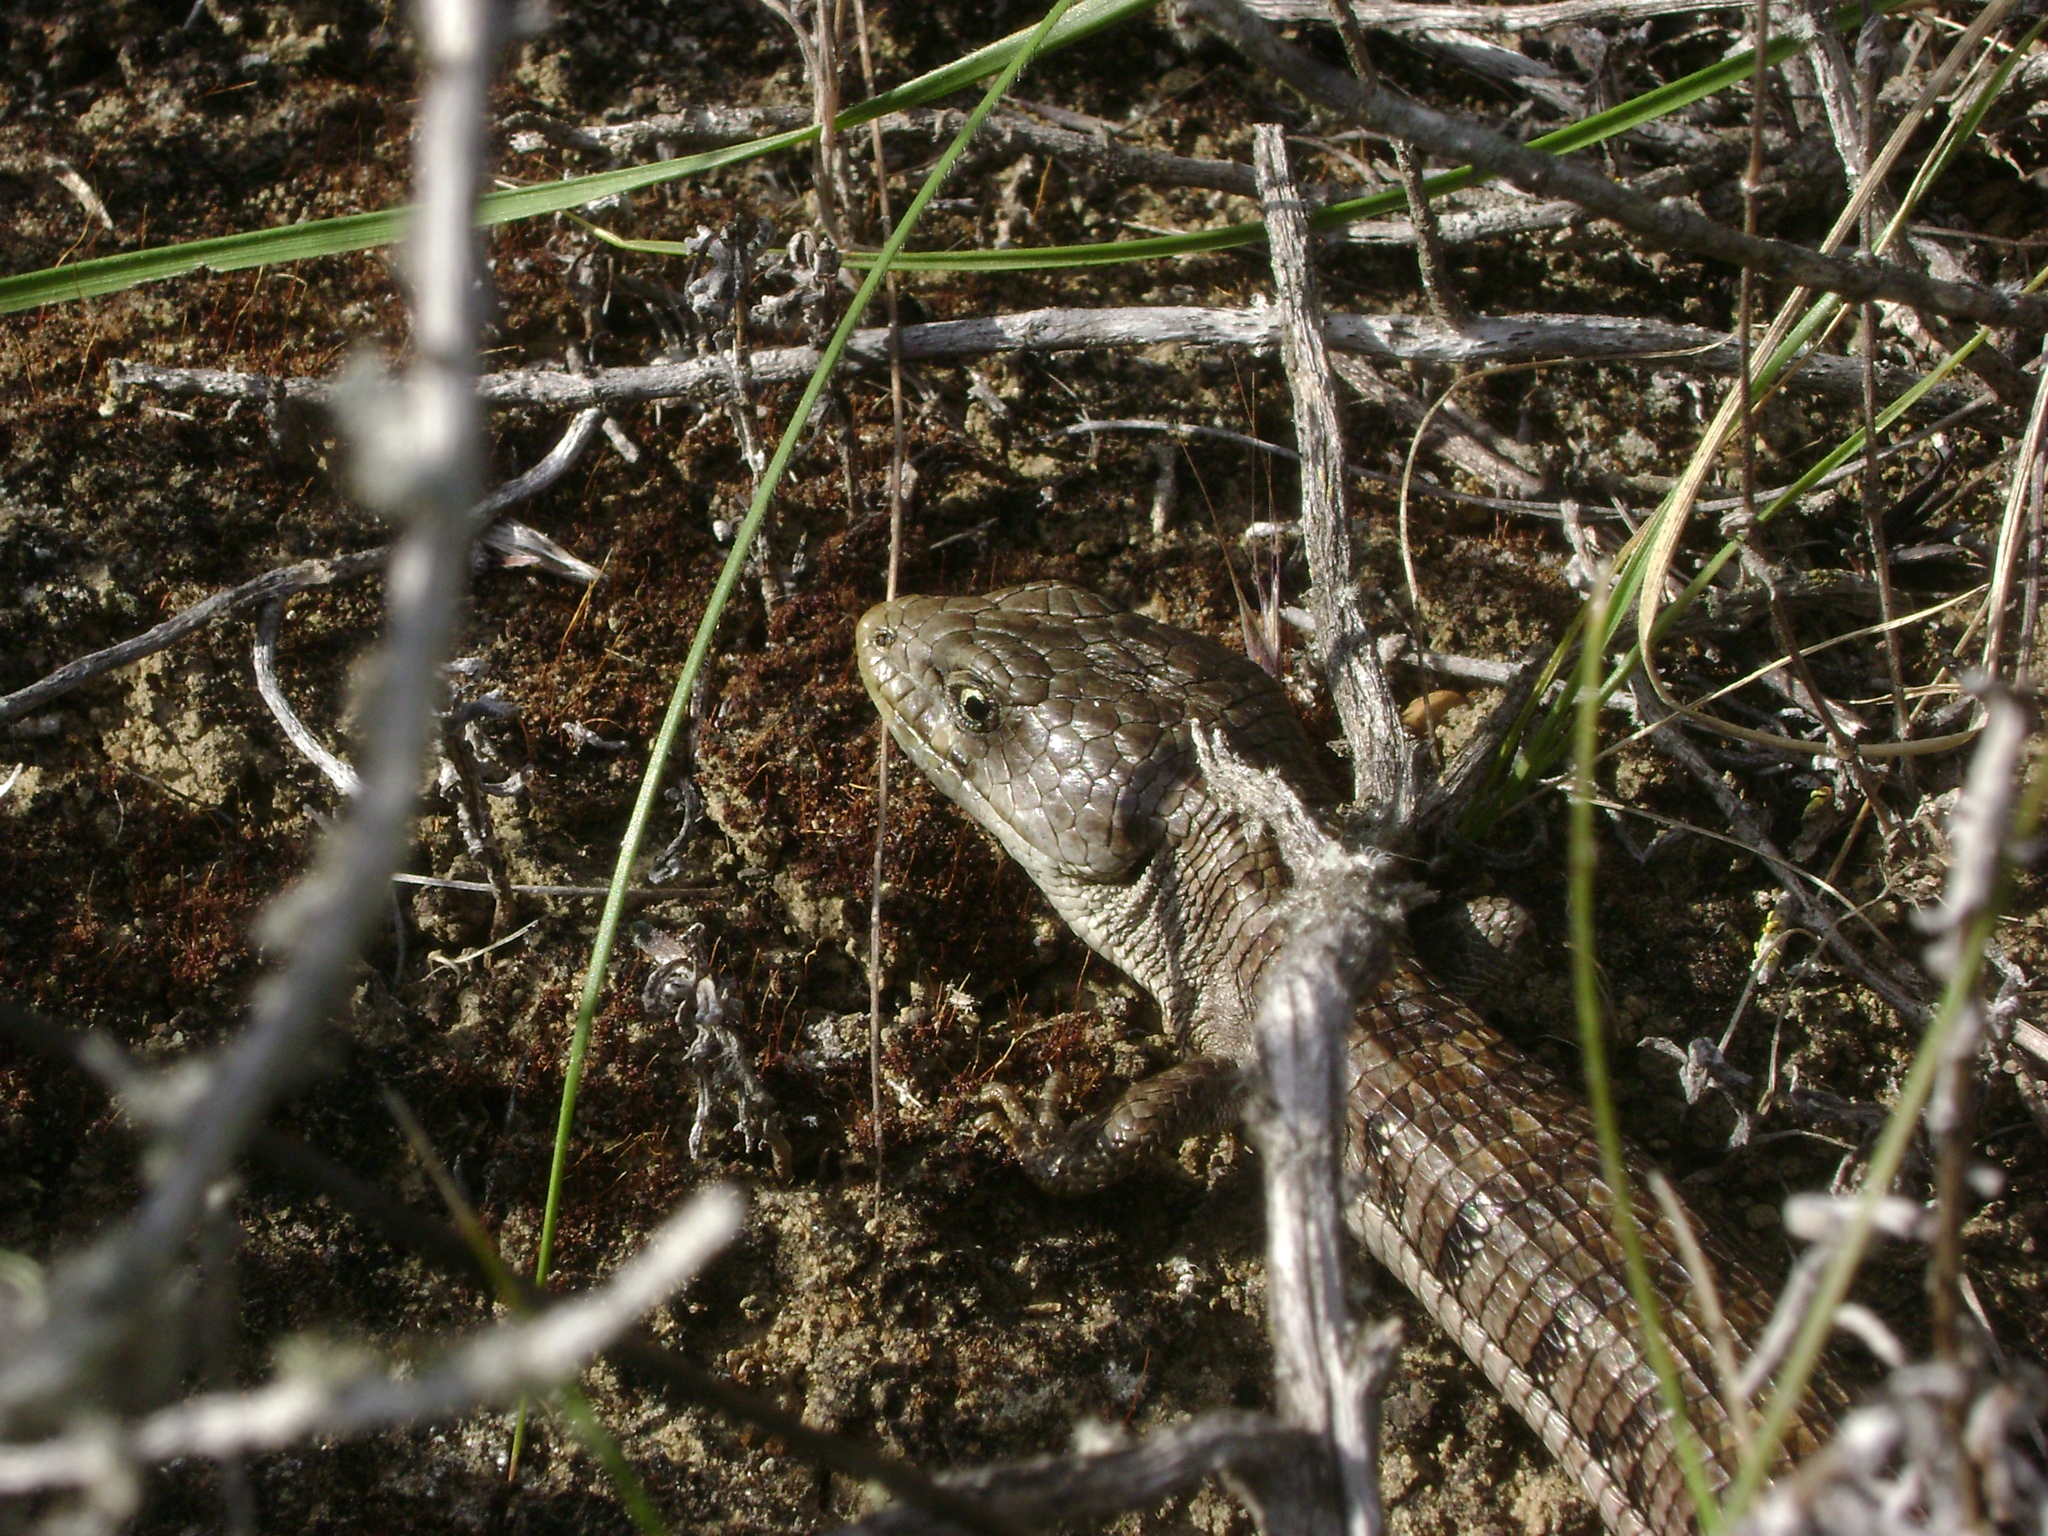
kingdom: Animalia
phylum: Chordata
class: Squamata
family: Anguidae
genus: Elgaria
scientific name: Elgaria multicarinata
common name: Southern alligator lizard
